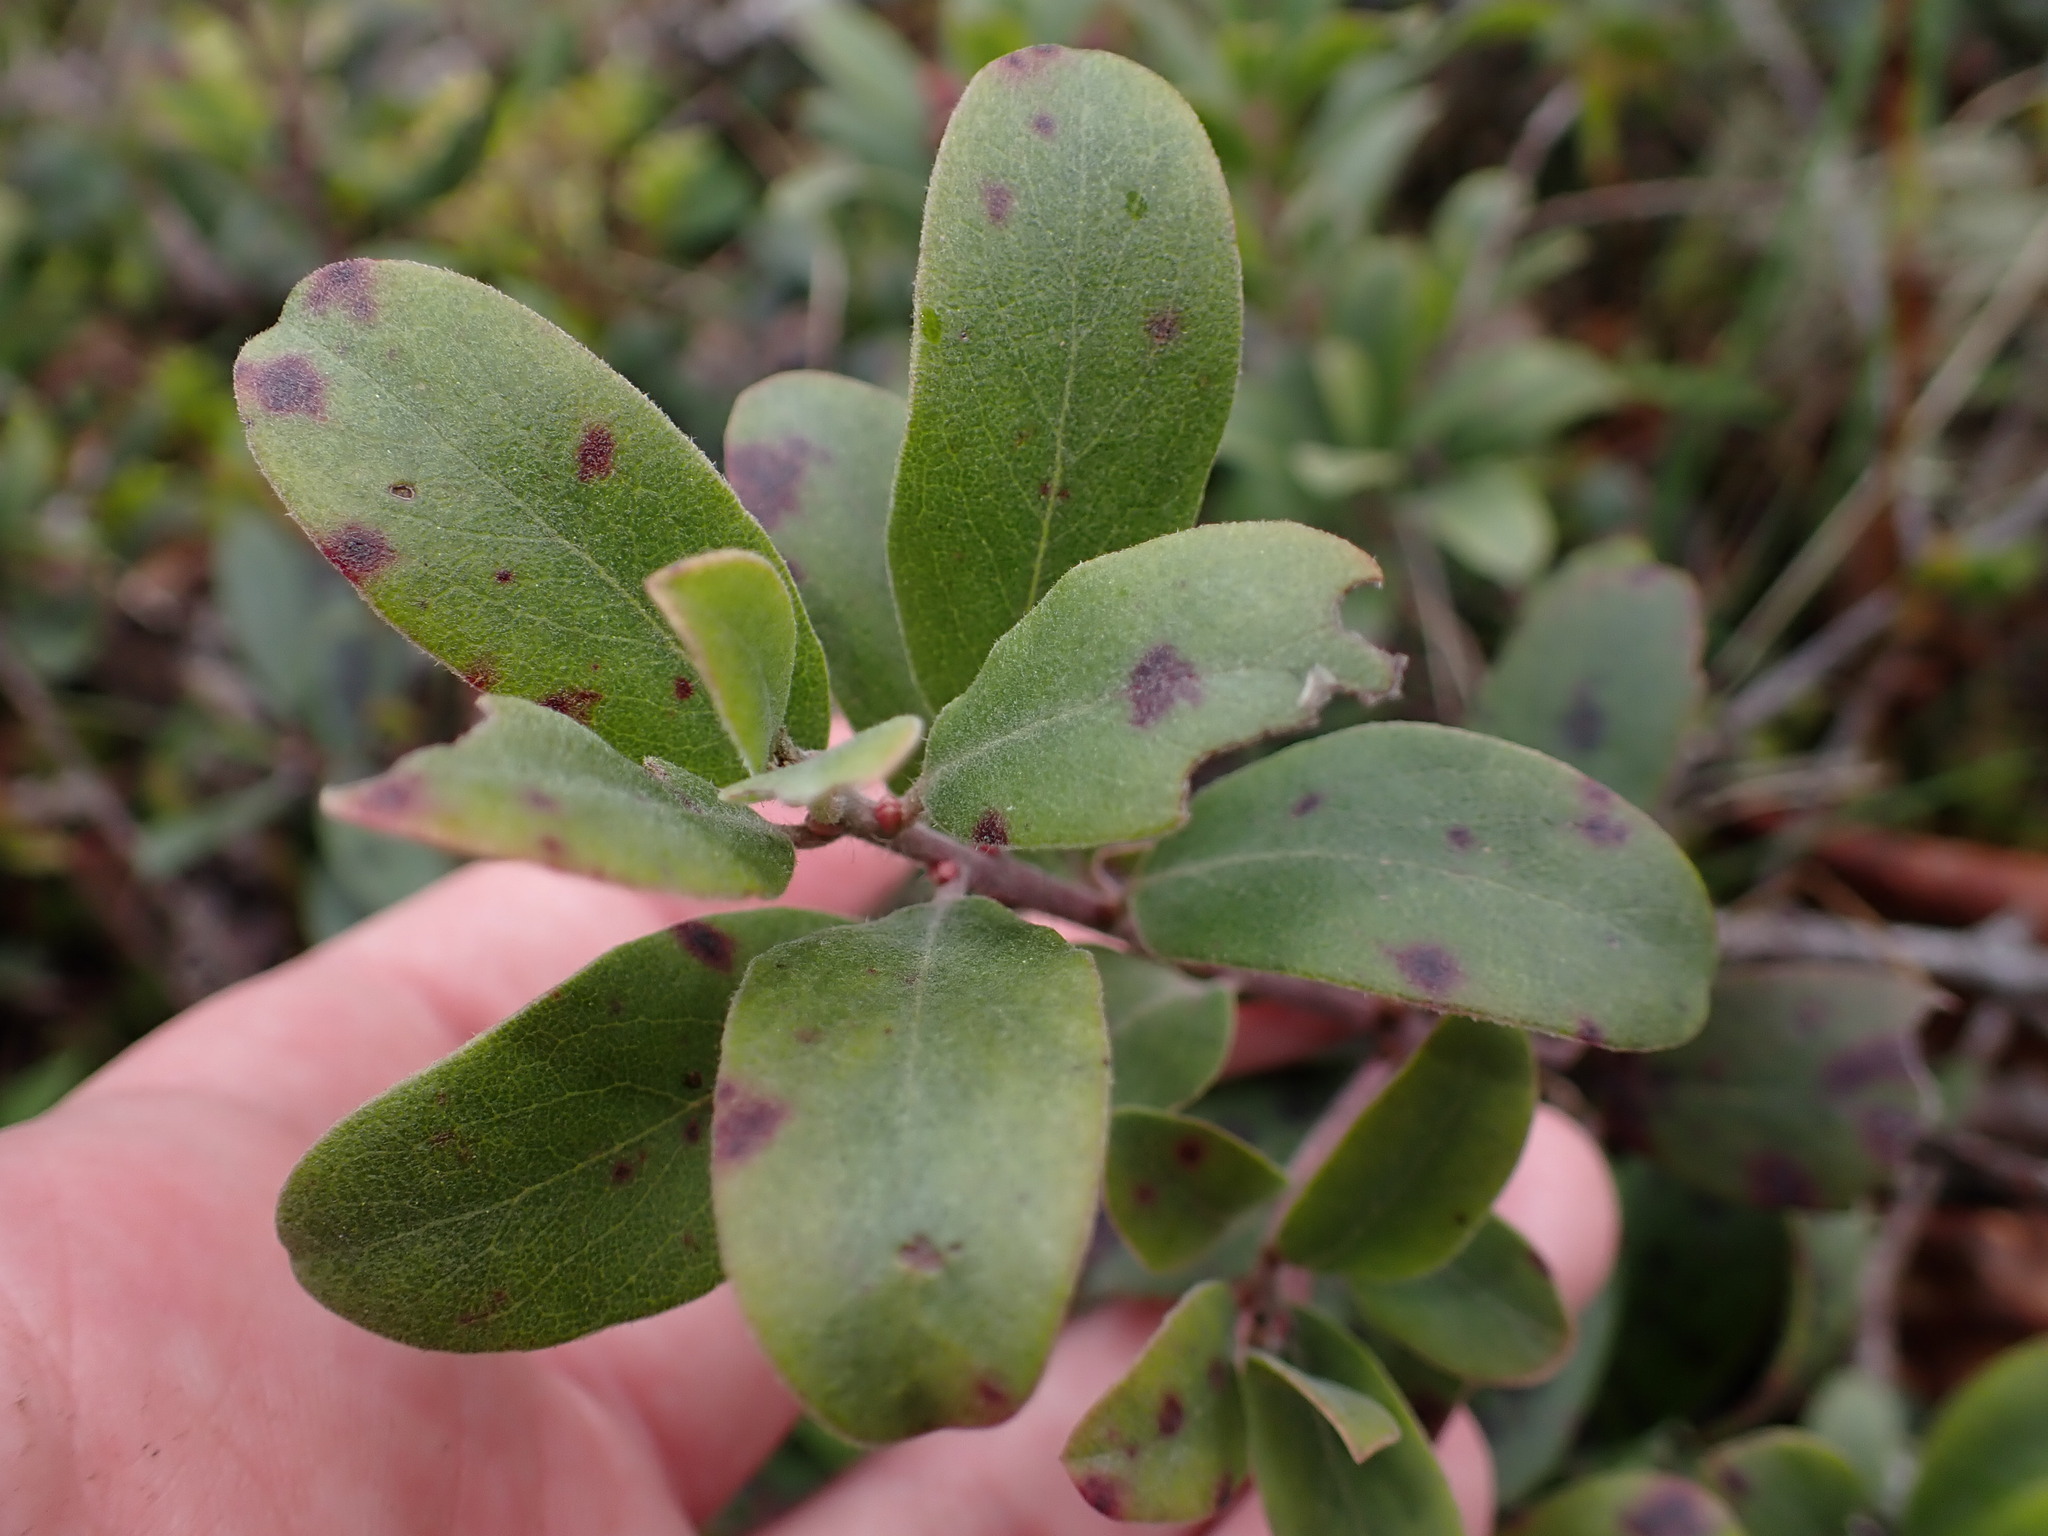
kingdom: Plantae
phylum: Tracheophyta
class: Magnoliopsida
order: Ericales
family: Ericaceae
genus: Arctostaphylos
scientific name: Arctostaphylos uva-ursi
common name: Bearberry
